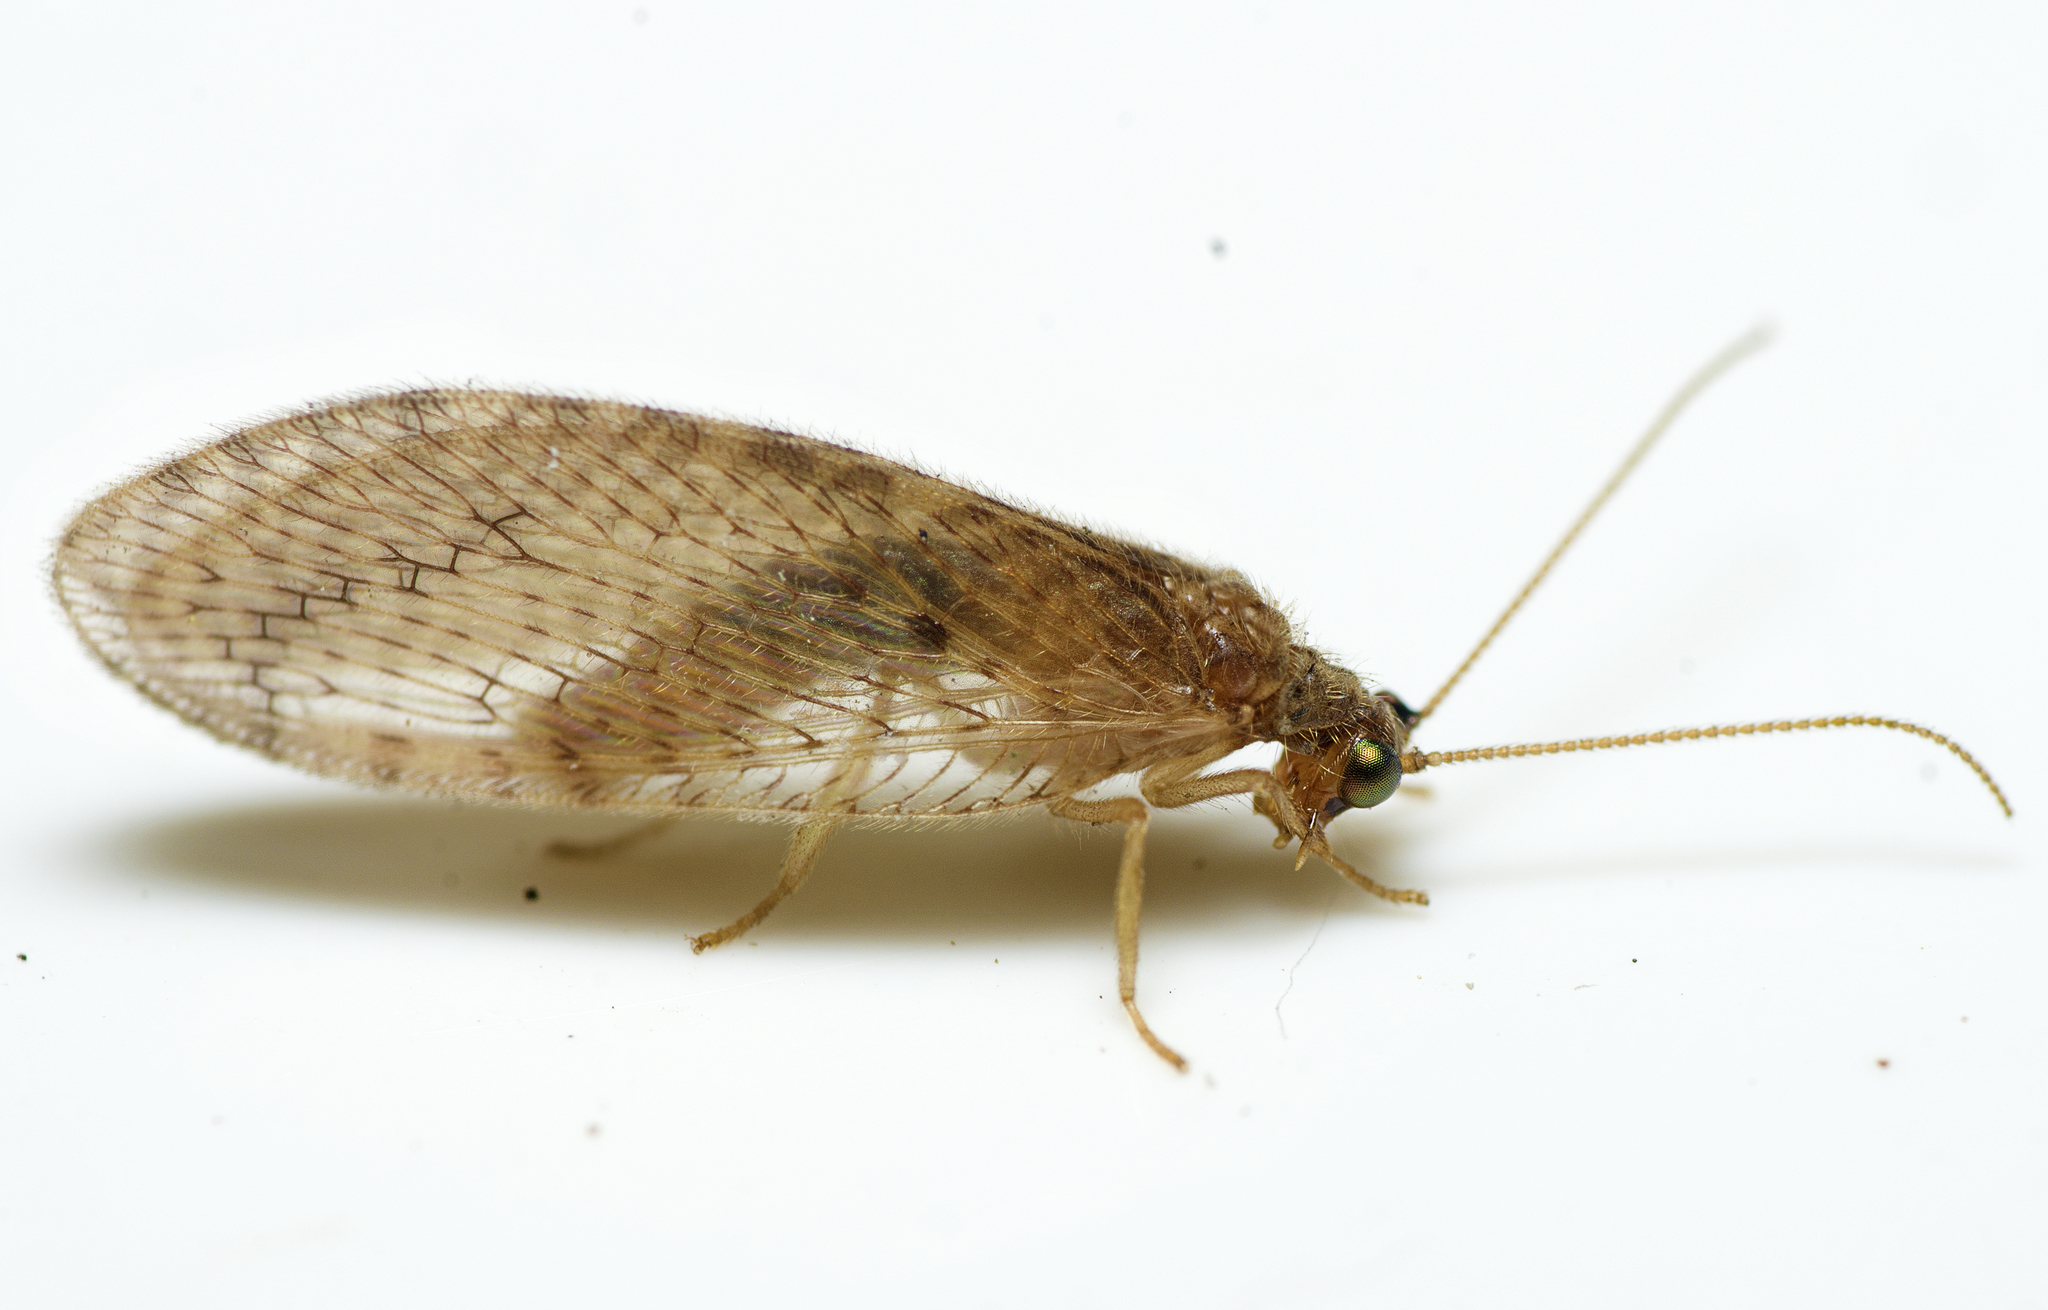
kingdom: Animalia
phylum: Arthropoda
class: Insecta
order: Neuroptera
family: Hemerobiidae
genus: Micromus
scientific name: Micromus tasmaniae
